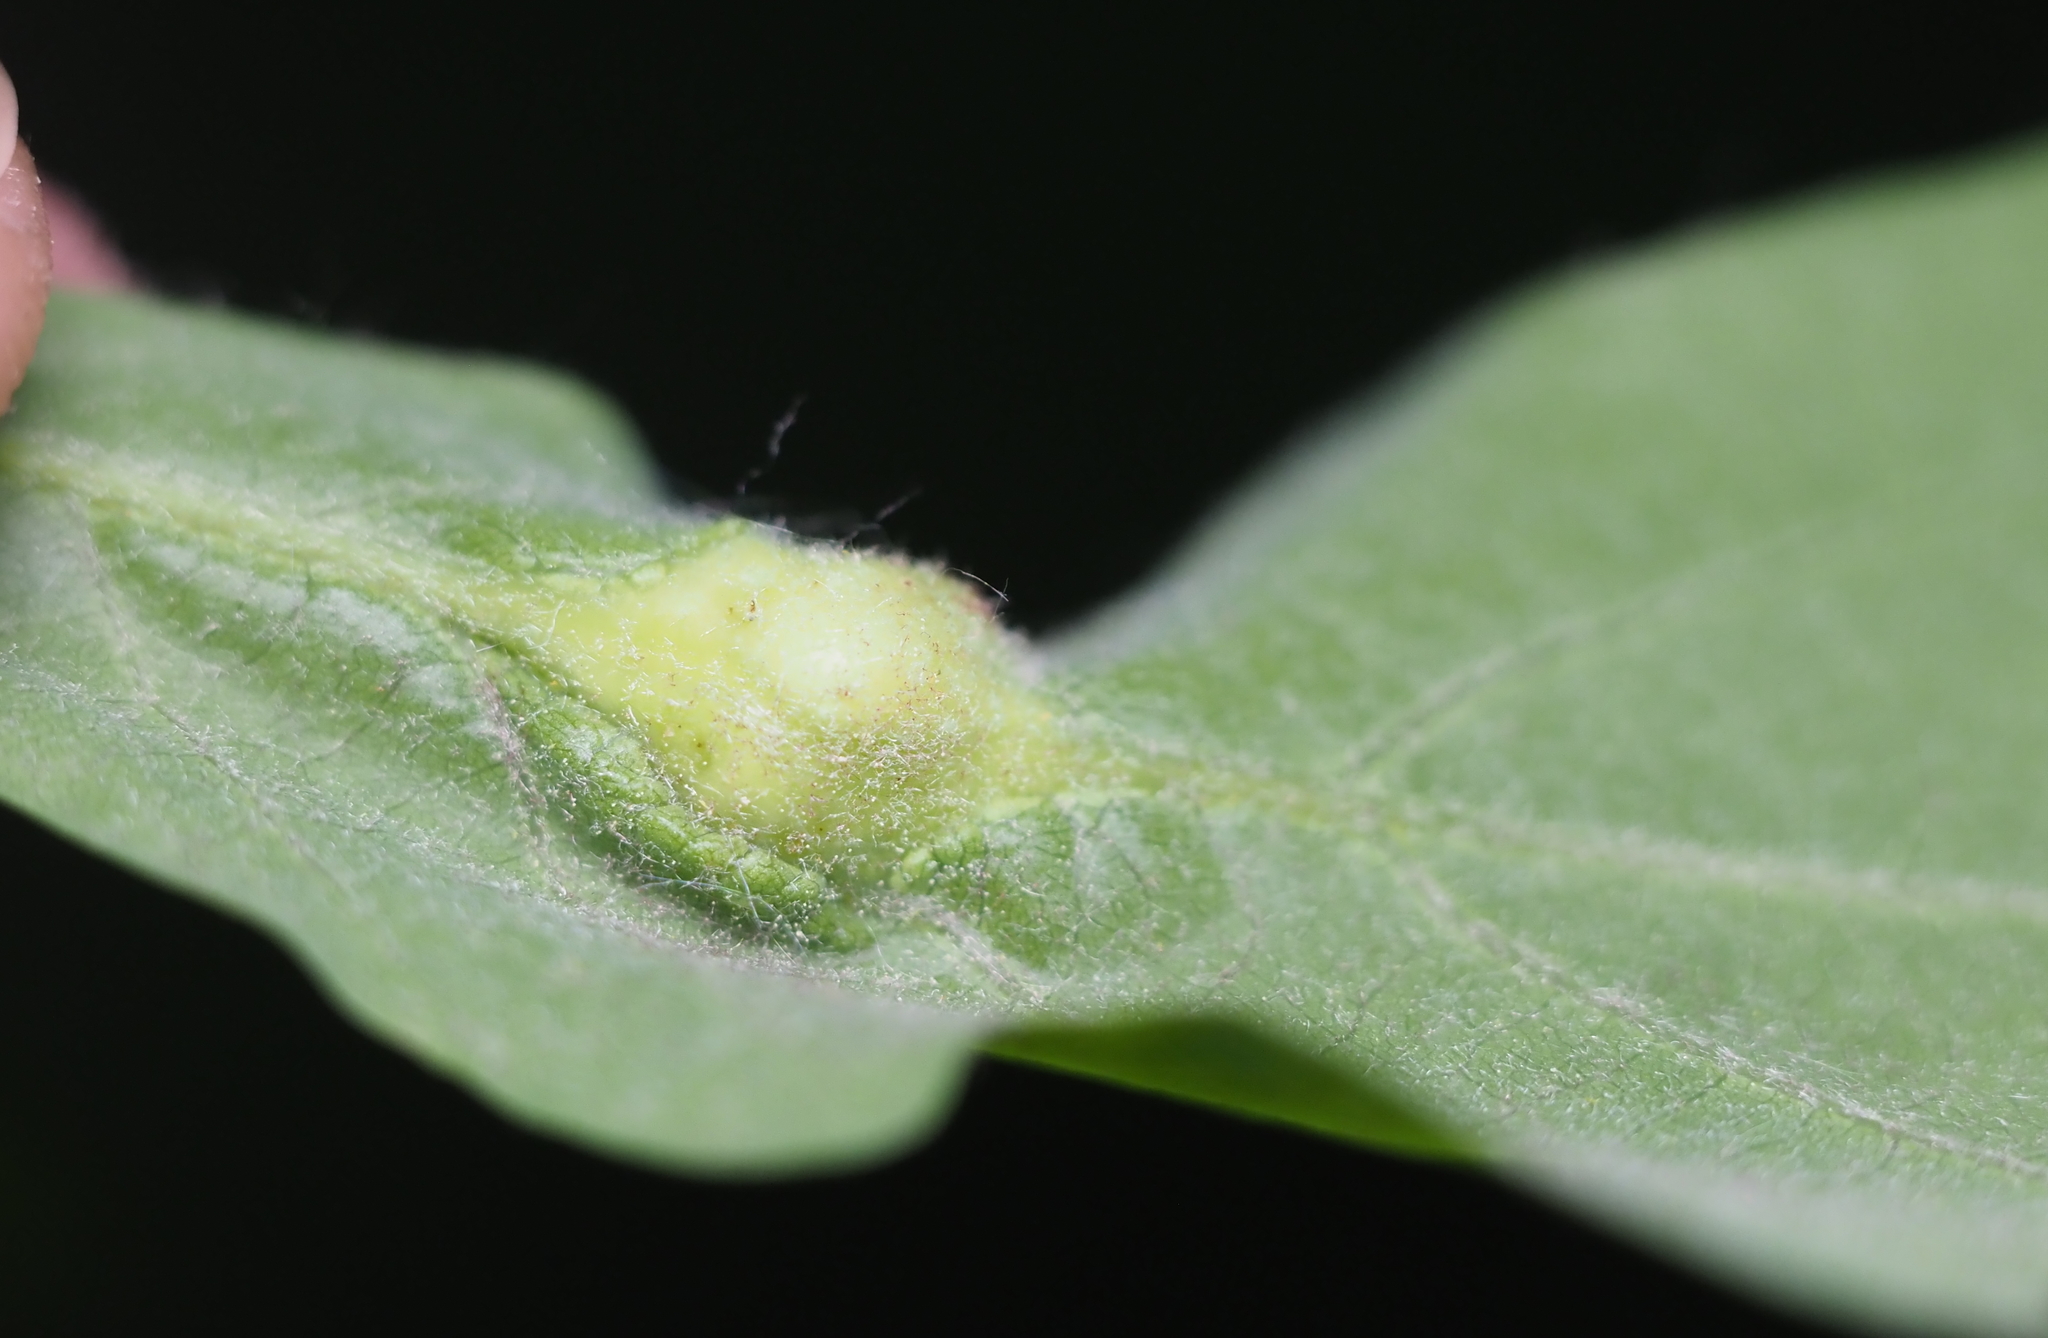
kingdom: Animalia
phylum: Arthropoda
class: Insecta
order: Hymenoptera
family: Cynipidae
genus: Andricus
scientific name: Andricus
